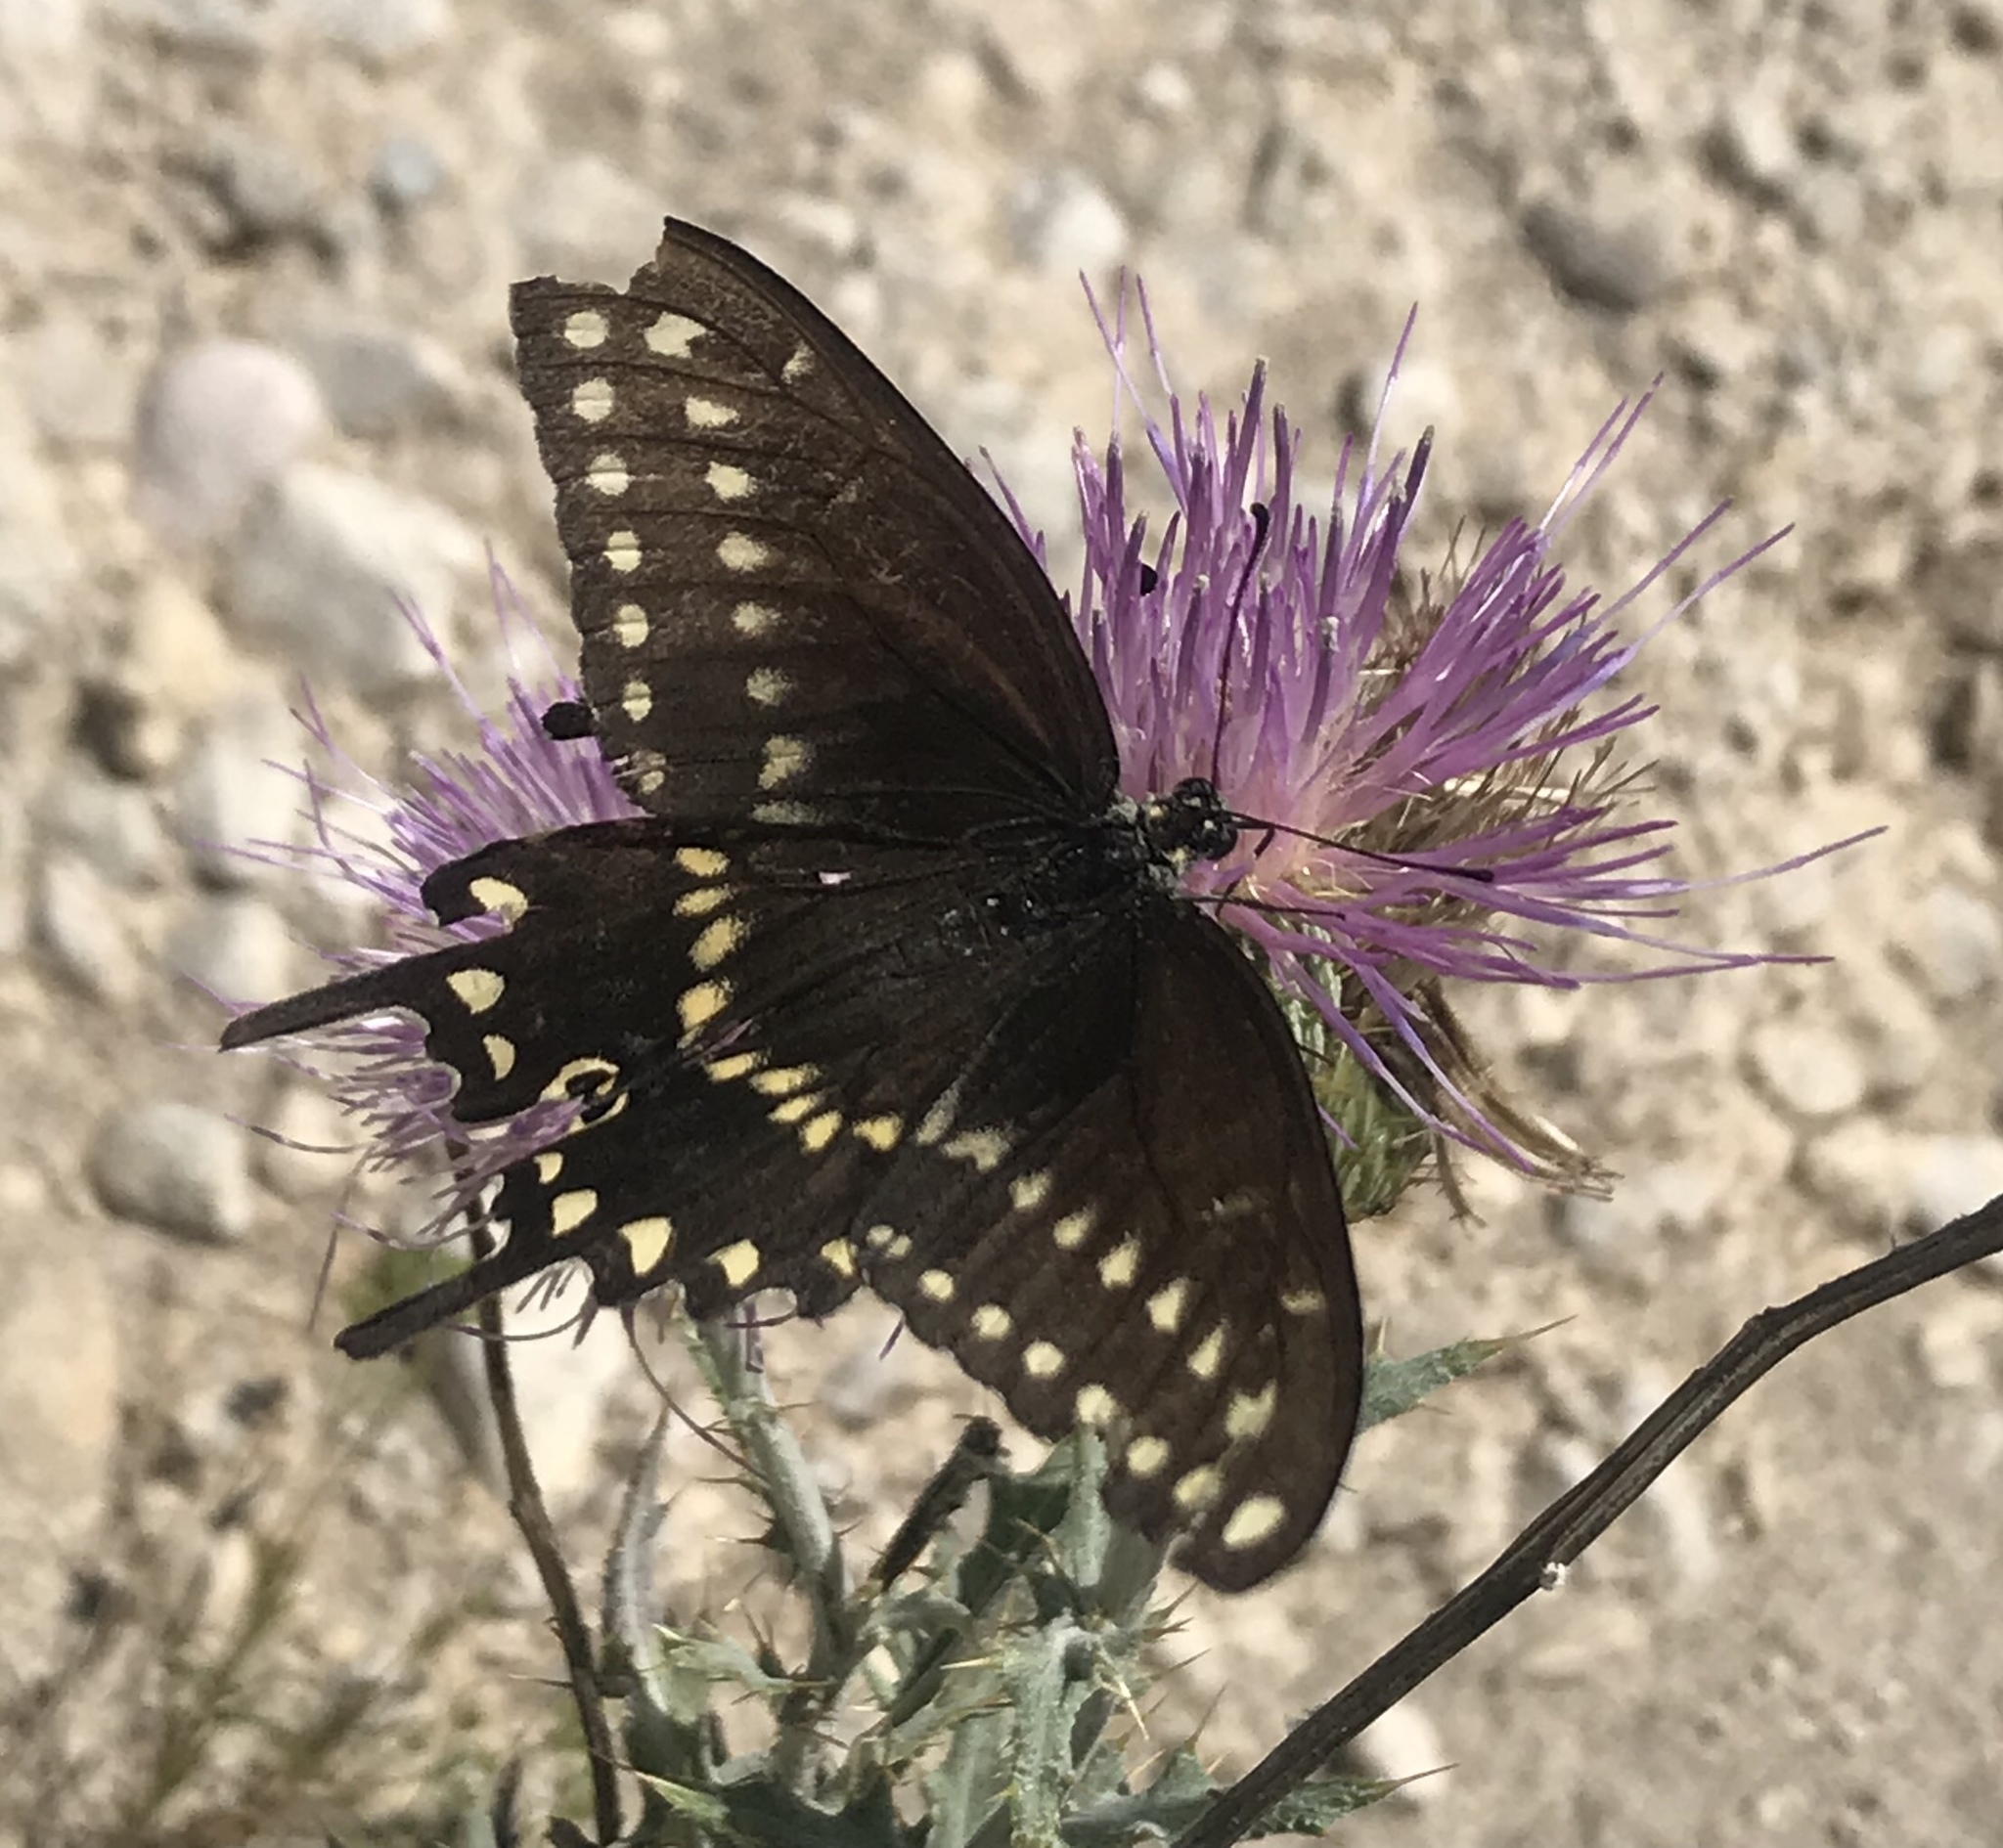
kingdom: Animalia
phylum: Arthropoda
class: Insecta
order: Lepidoptera
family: Papilionidae
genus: Papilio
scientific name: Papilio polyxenes
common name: Black swallowtail
